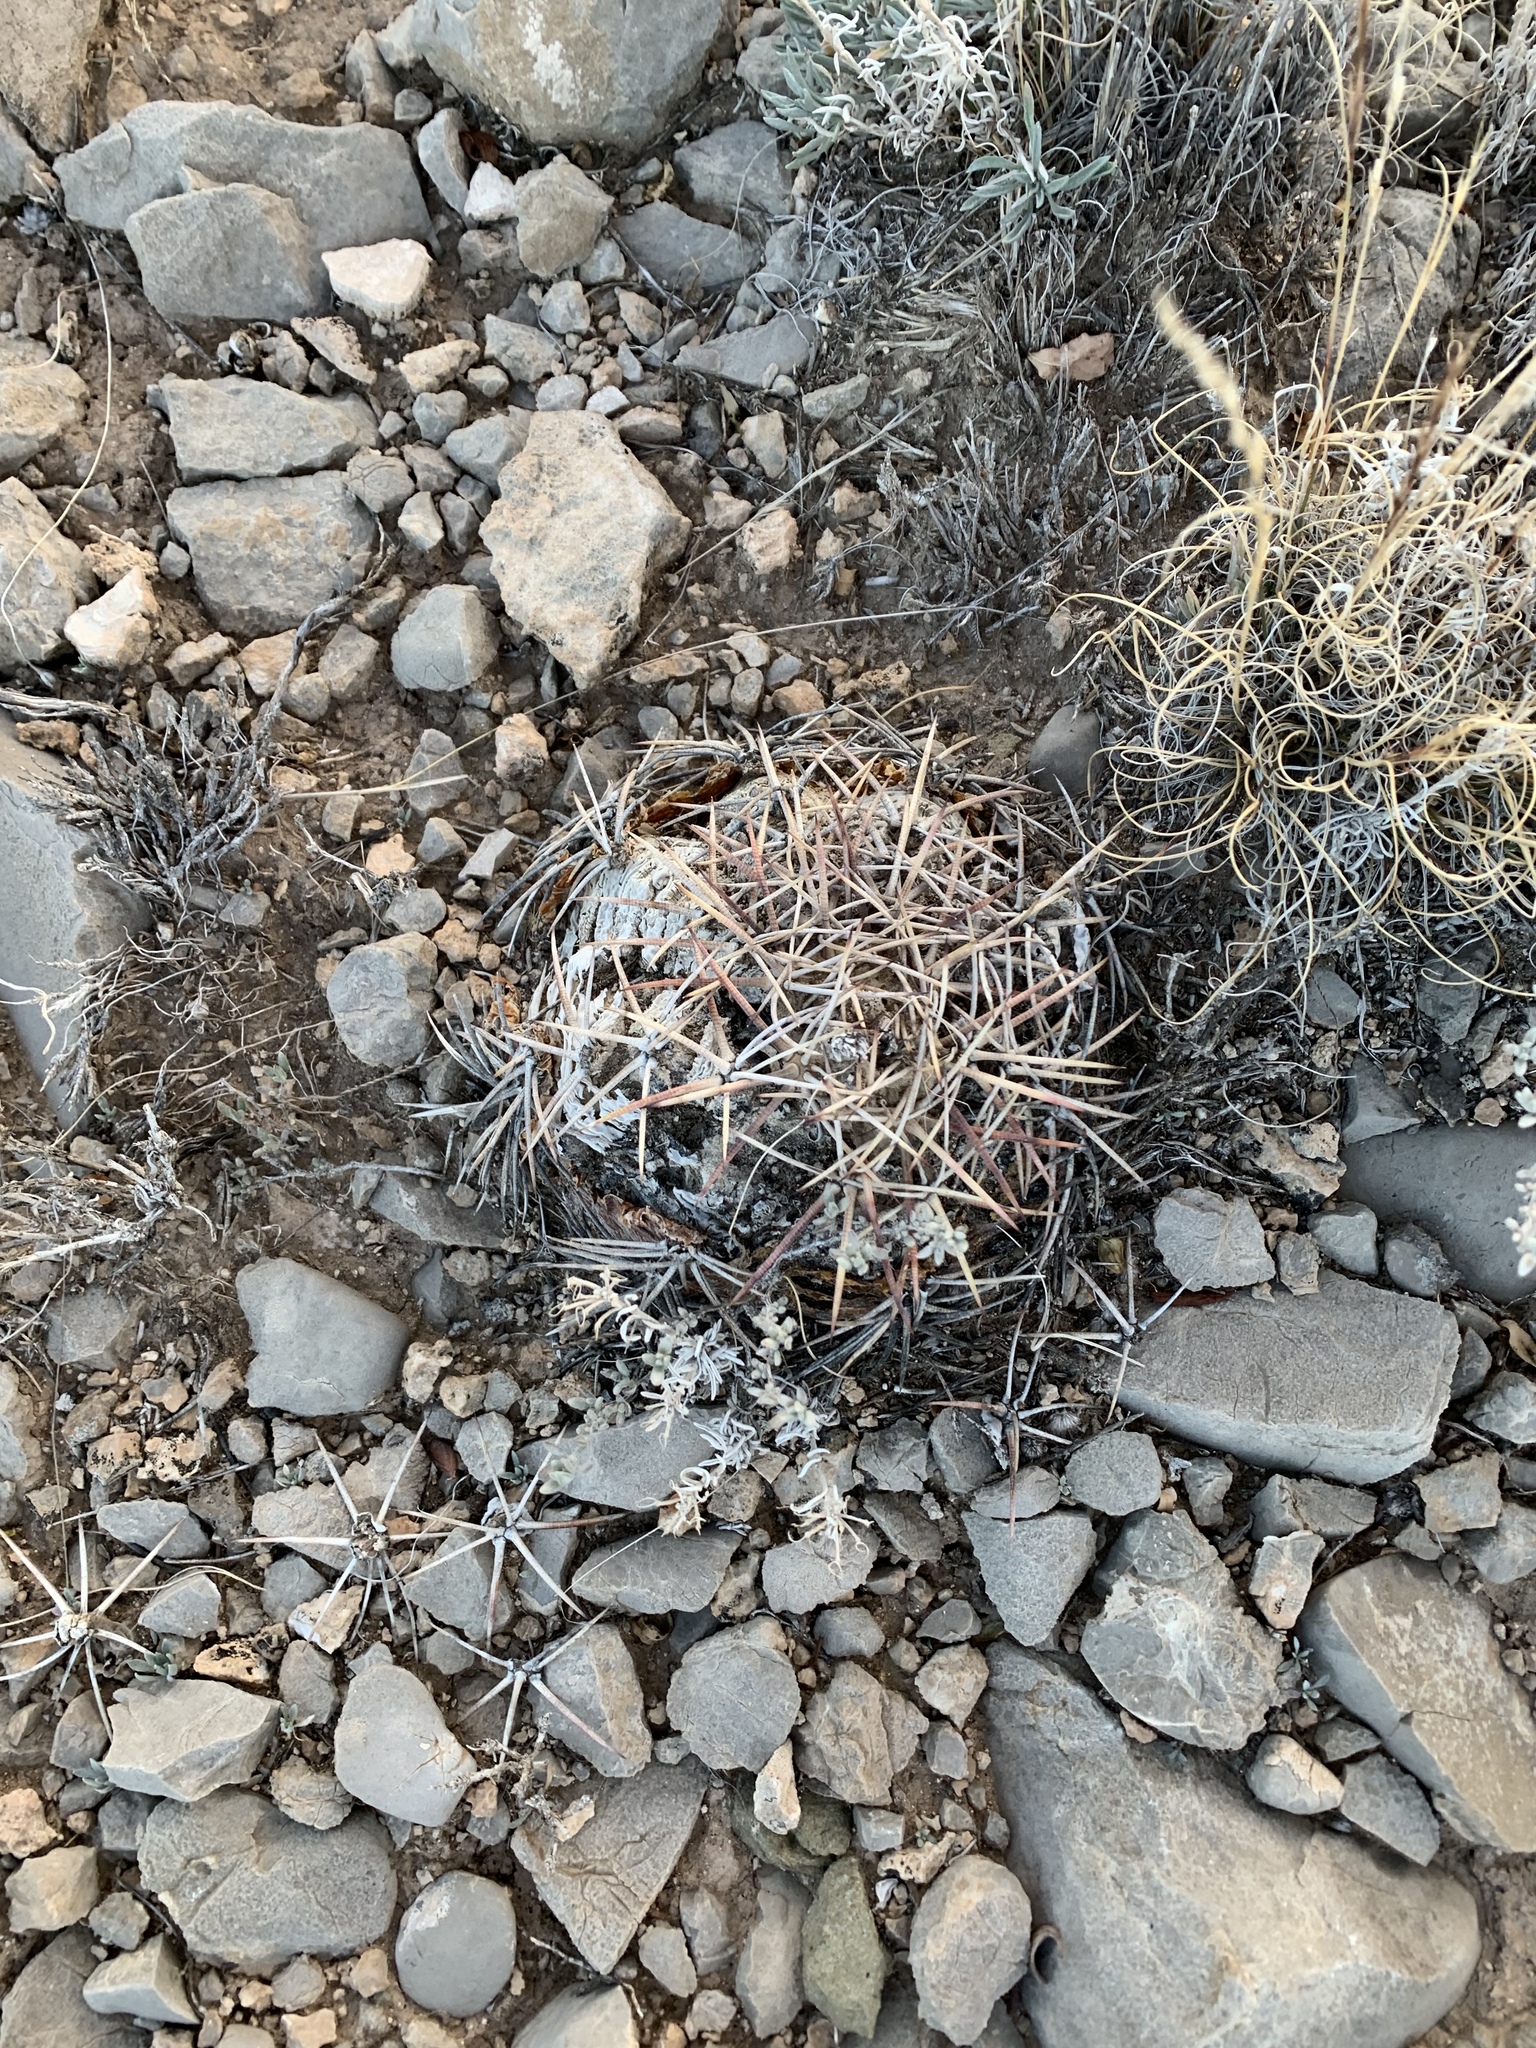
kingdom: Plantae
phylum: Tracheophyta
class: Magnoliopsida
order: Caryophyllales
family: Cactaceae
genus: Echinocactus
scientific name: Echinocactus horizonthalonius
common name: Devilshead
